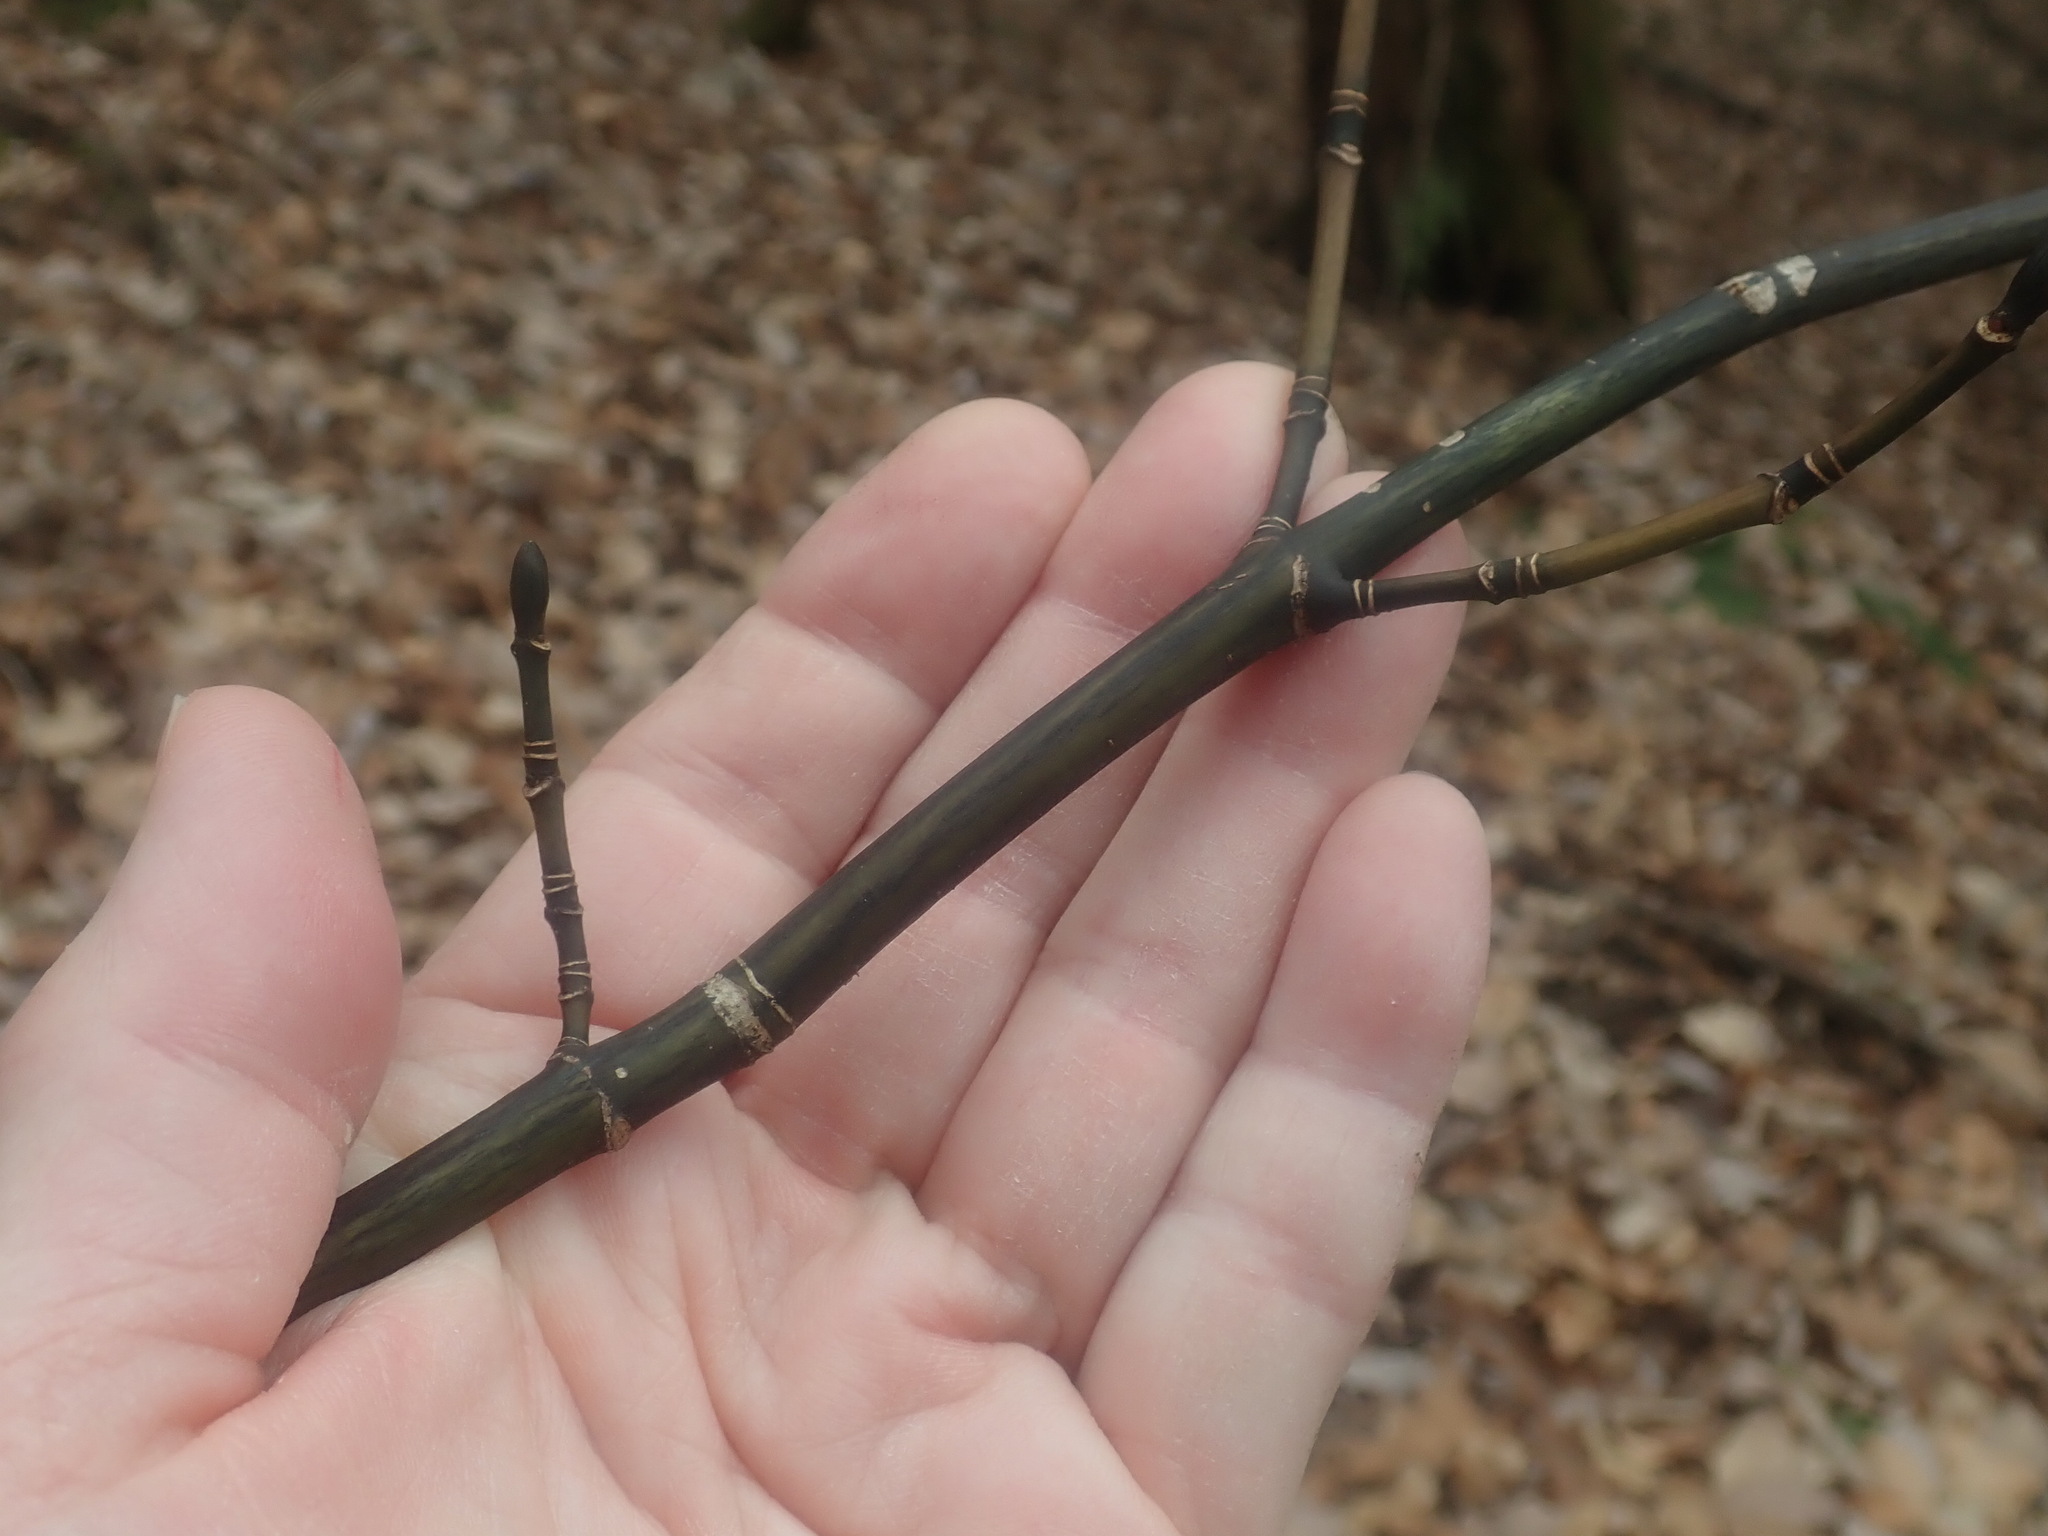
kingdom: Plantae
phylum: Tracheophyta
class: Magnoliopsida
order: Sapindales
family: Sapindaceae
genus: Acer
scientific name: Acer pensylvanicum
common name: Moosewood
